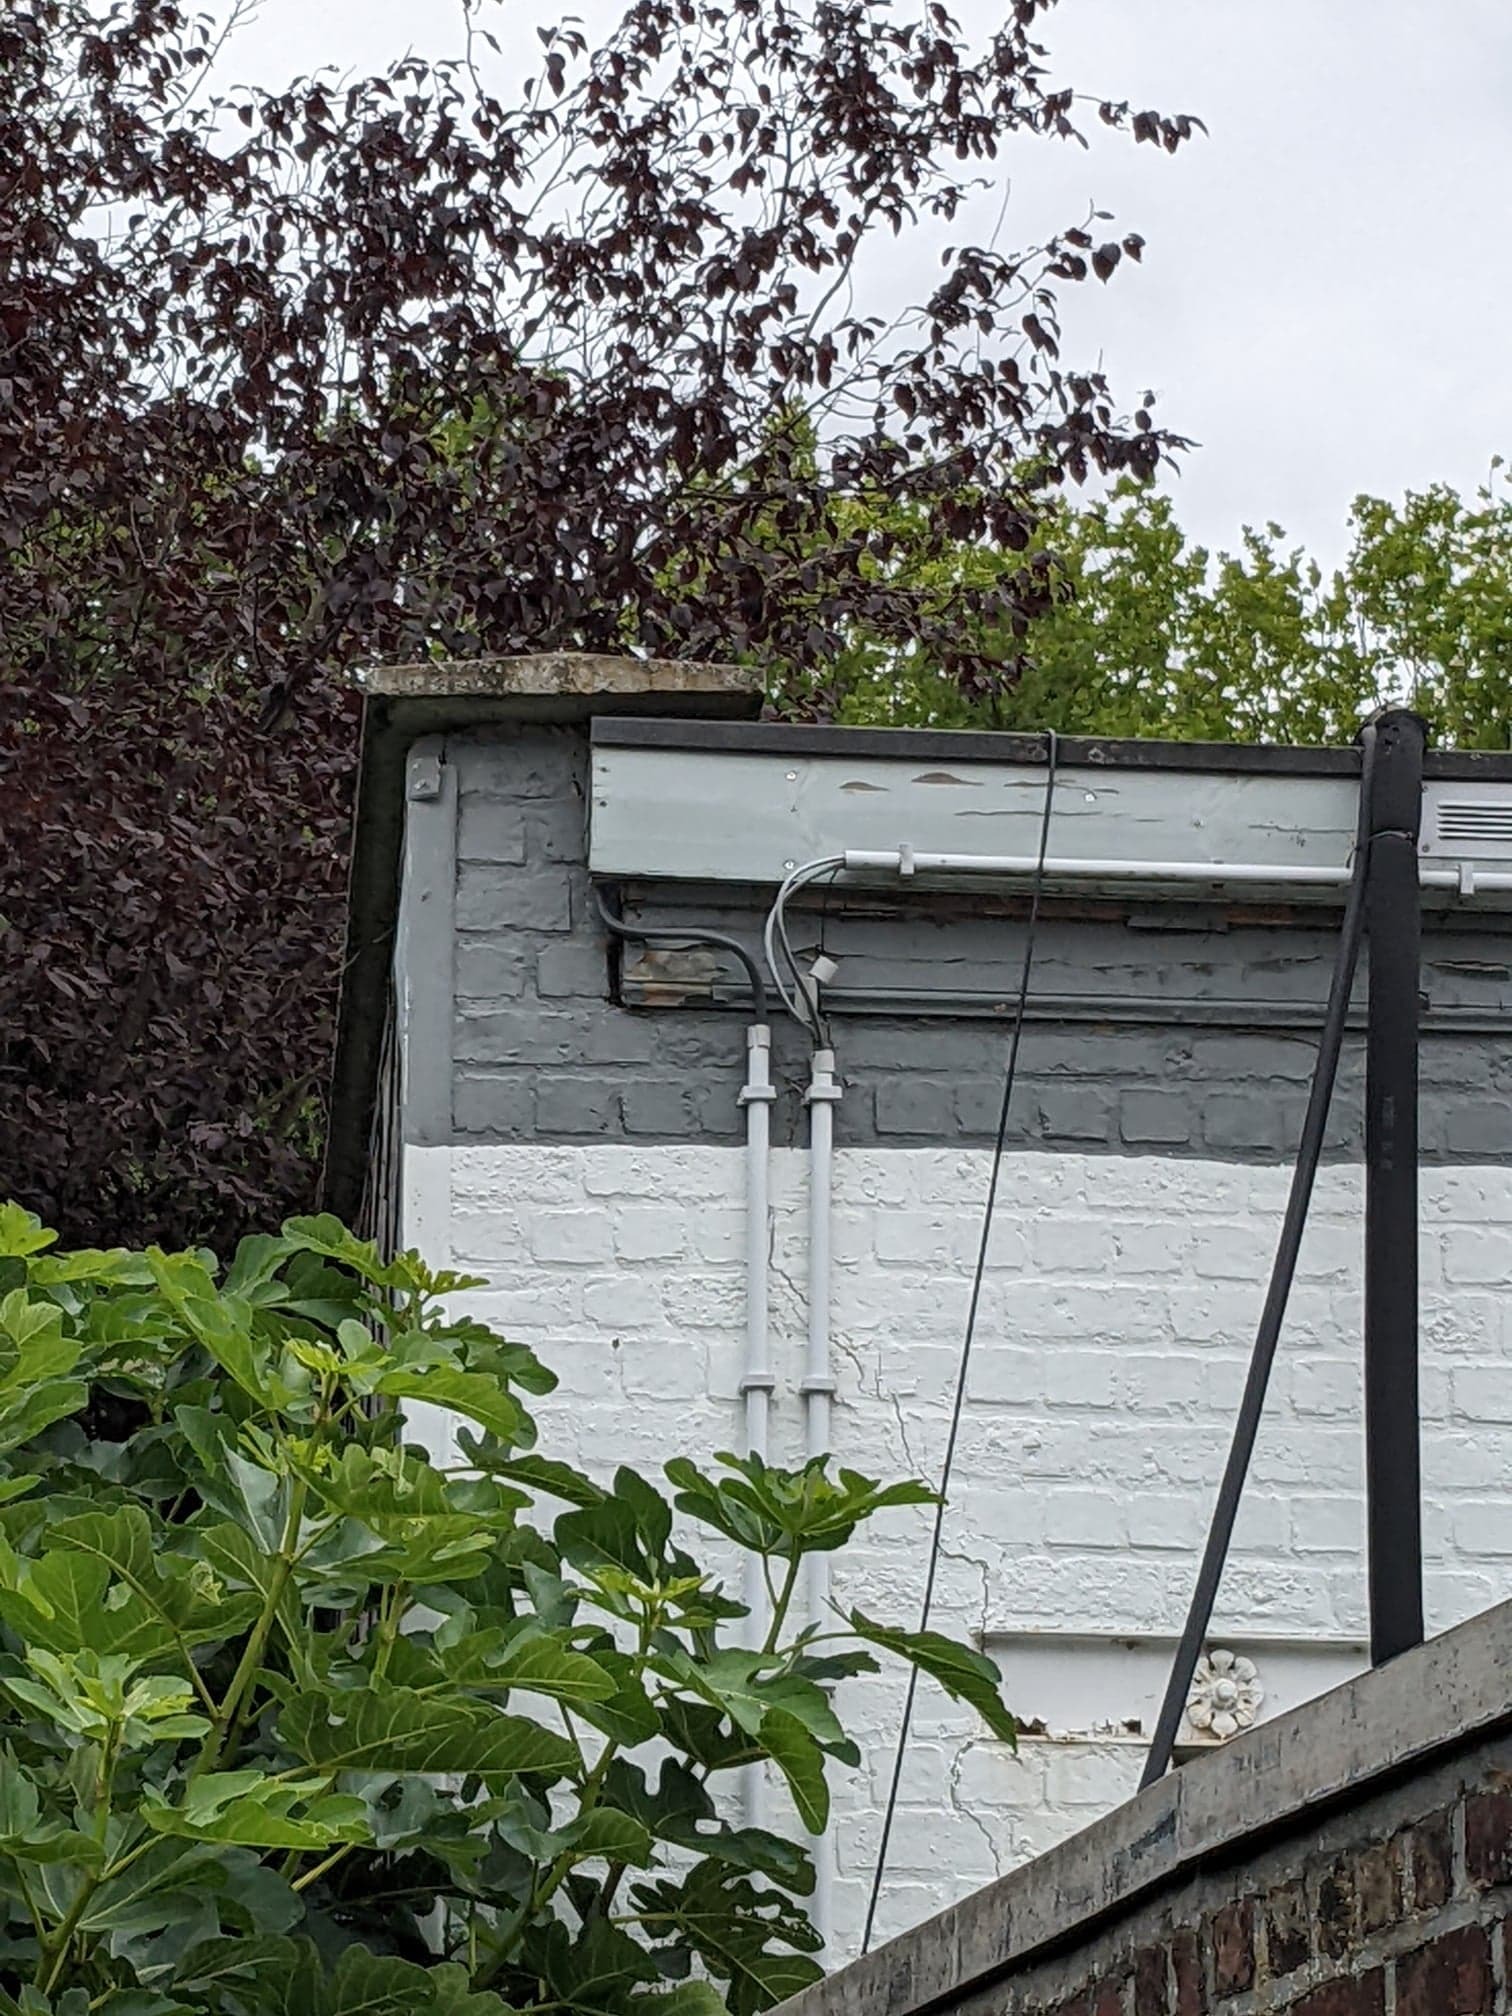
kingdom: Animalia
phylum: Arthropoda
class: Insecta
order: Hymenoptera
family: Vespidae
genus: Vespa
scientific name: Vespa crabro
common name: Hornet
